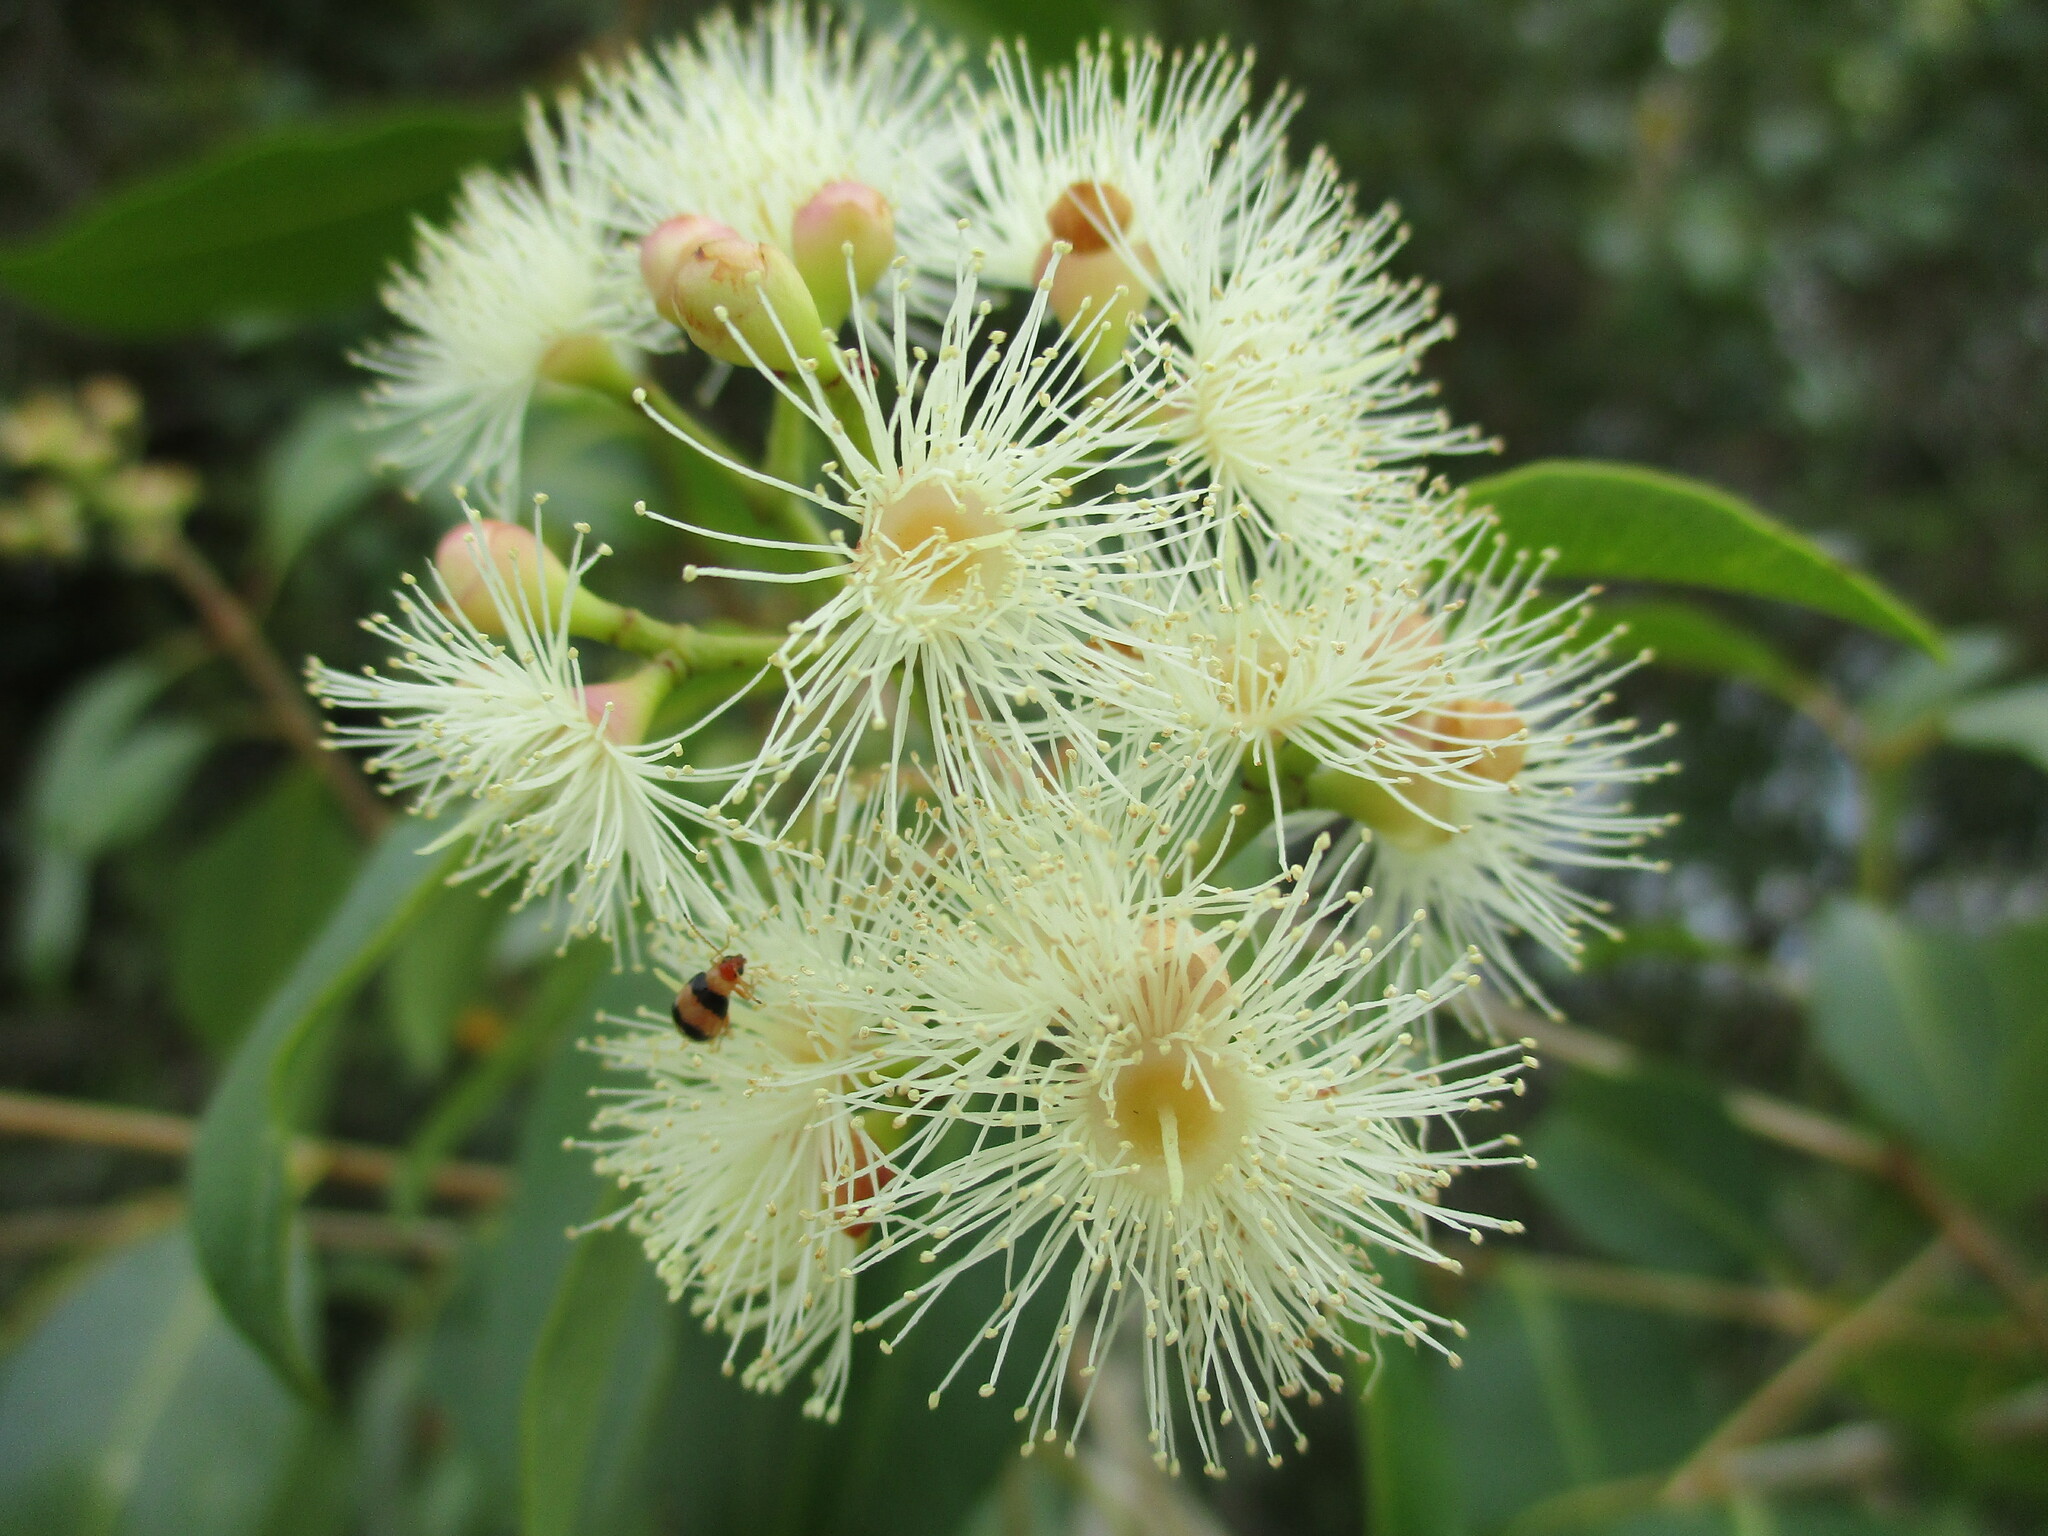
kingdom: Plantae
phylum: Tracheophyta
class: Magnoliopsida
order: Myrtales
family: Myrtaceae
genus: Syzygium
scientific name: Syzygium guineense
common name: Water-pear
